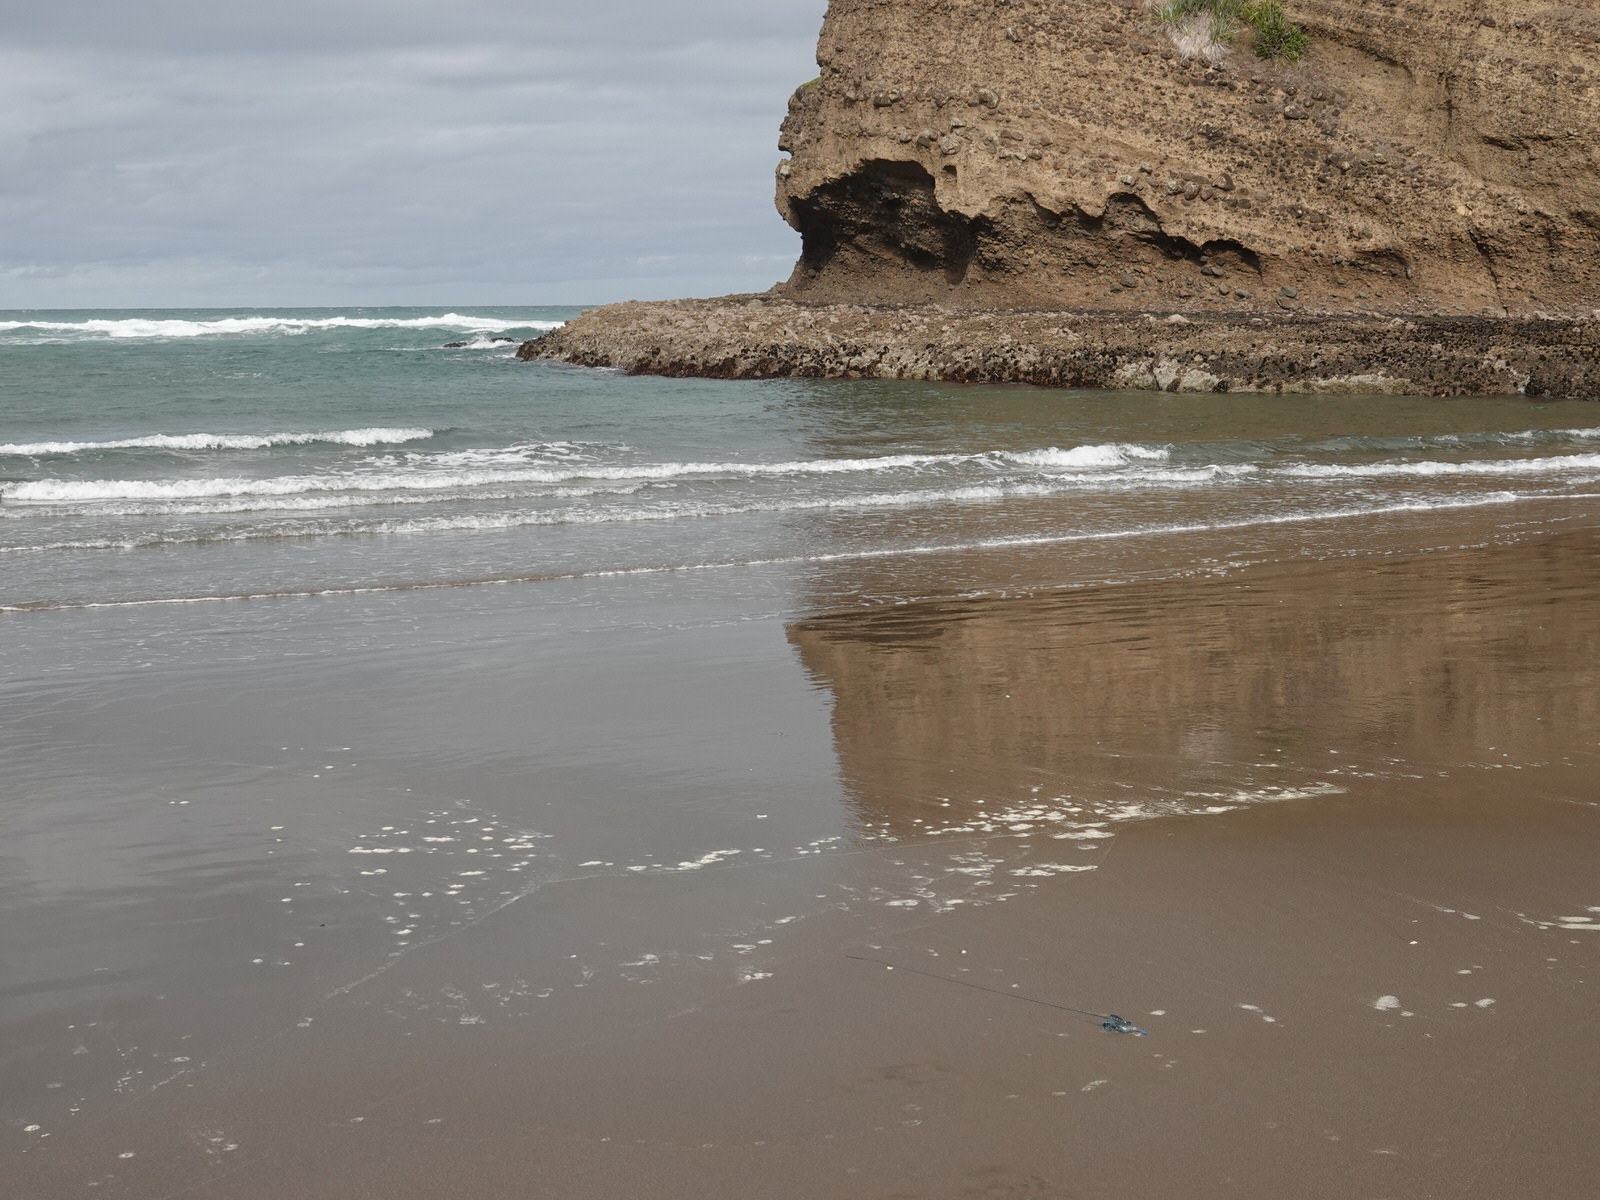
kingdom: Animalia
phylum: Cnidaria
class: Hydrozoa
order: Siphonophorae
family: Physaliidae
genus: Physalia
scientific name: Physalia physalis
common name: Portuguese man-of-war
